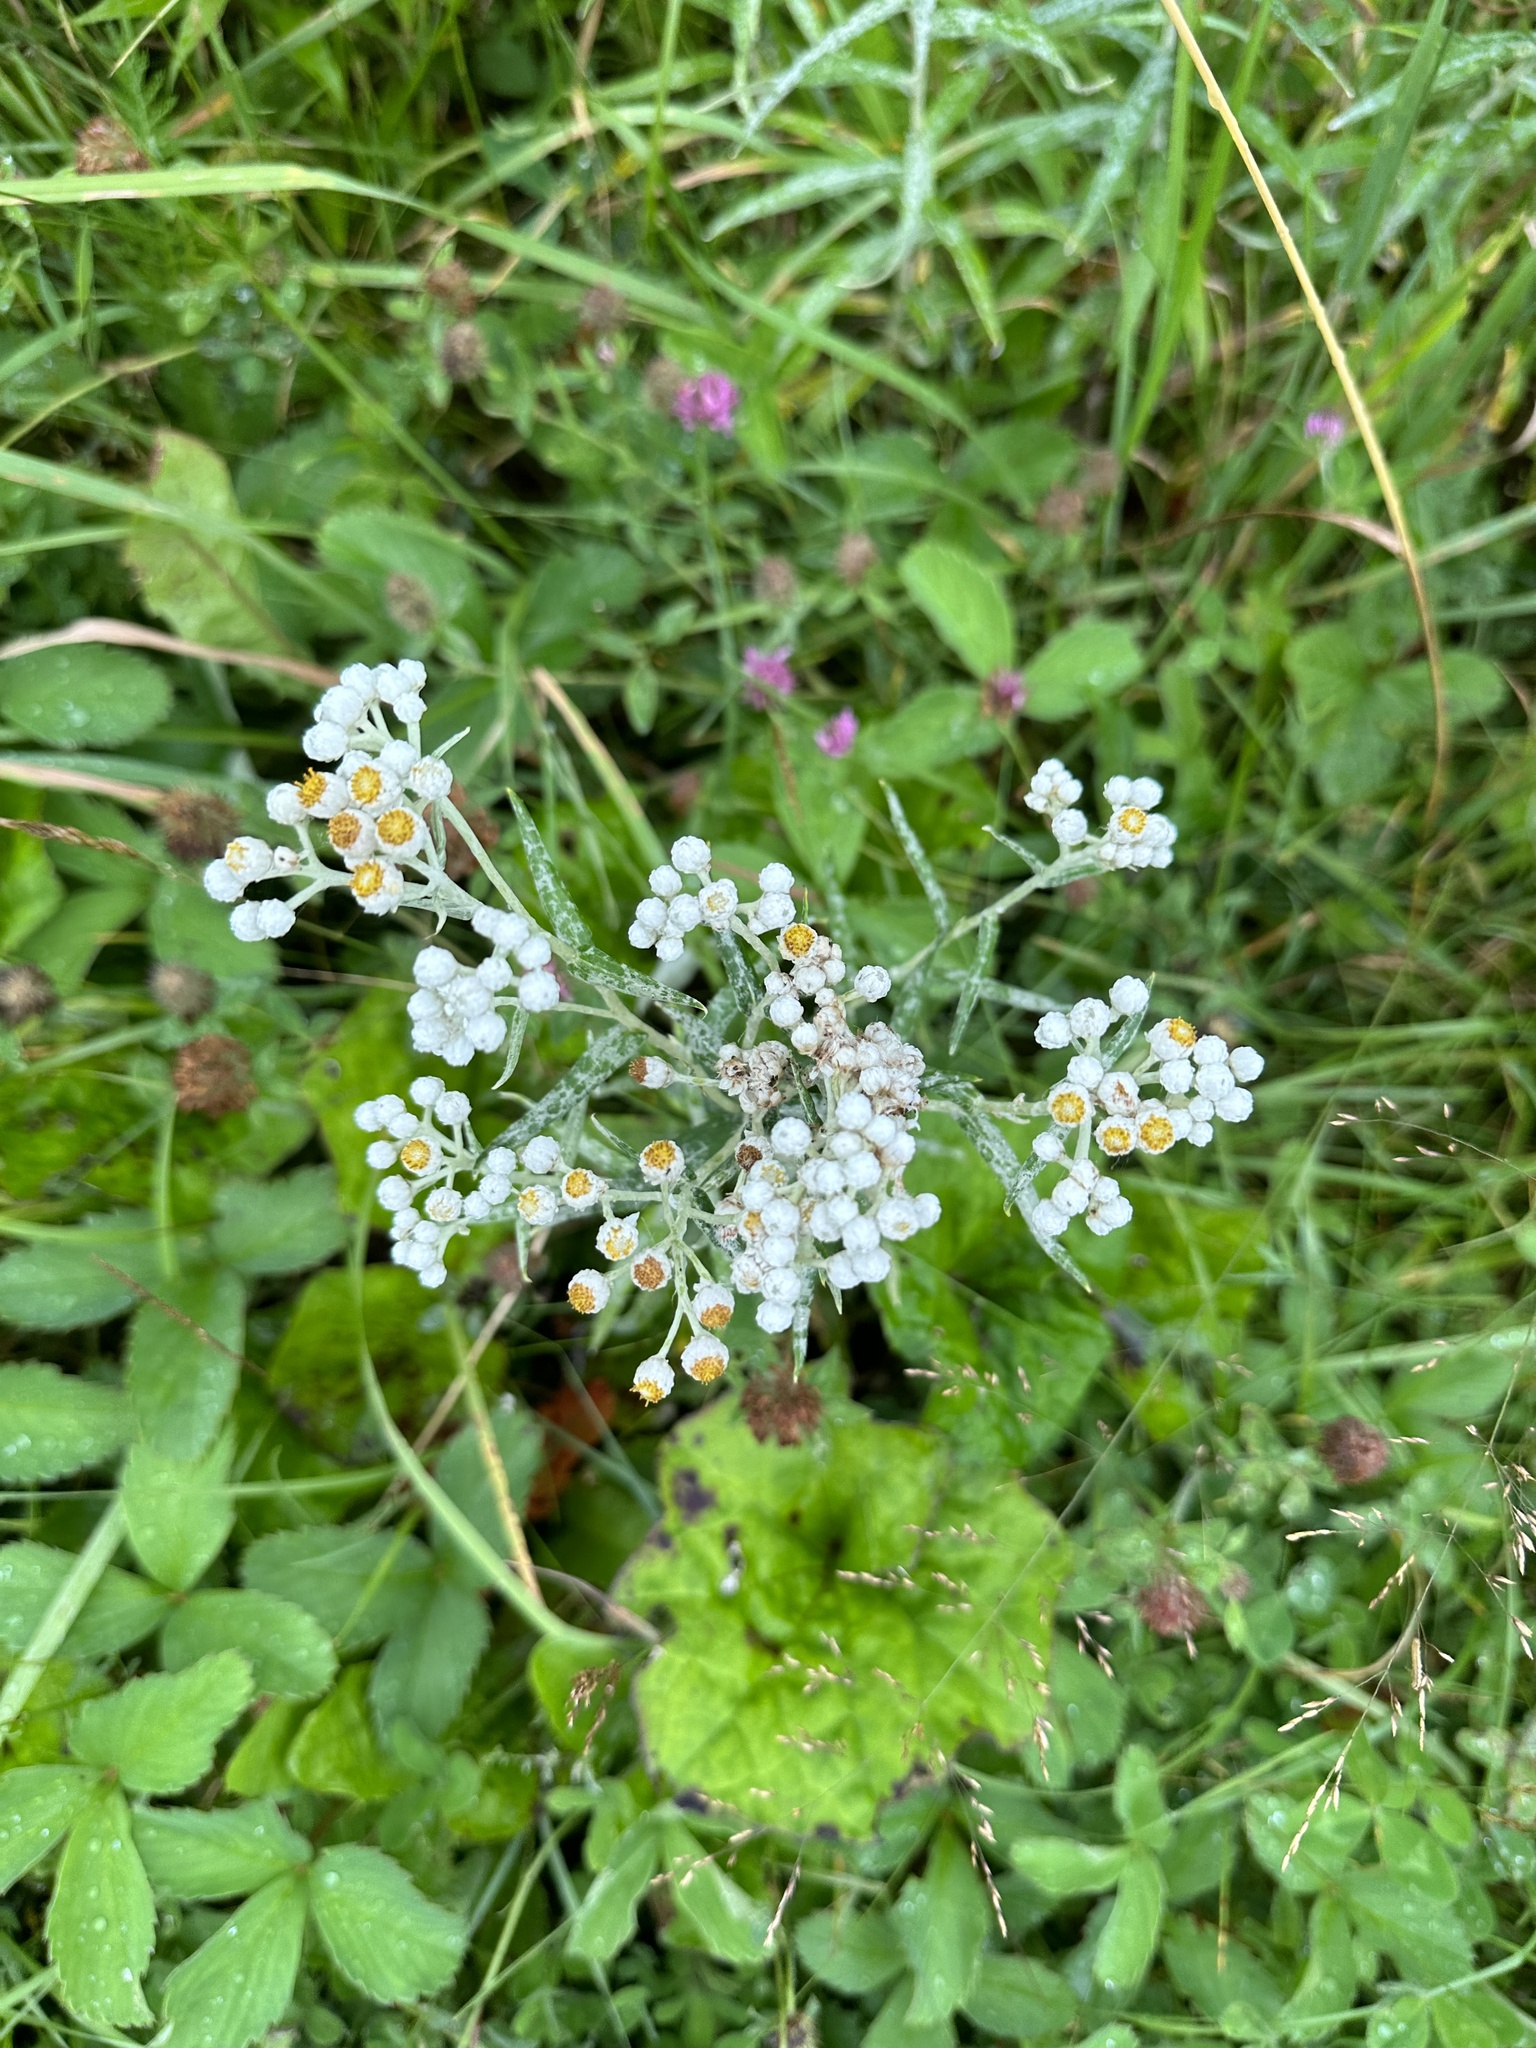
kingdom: Plantae
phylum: Tracheophyta
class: Magnoliopsida
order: Asterales
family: Asteraceae
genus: Anaphalis
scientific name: Anaphalis margaritacea
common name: Pearly everlasting
